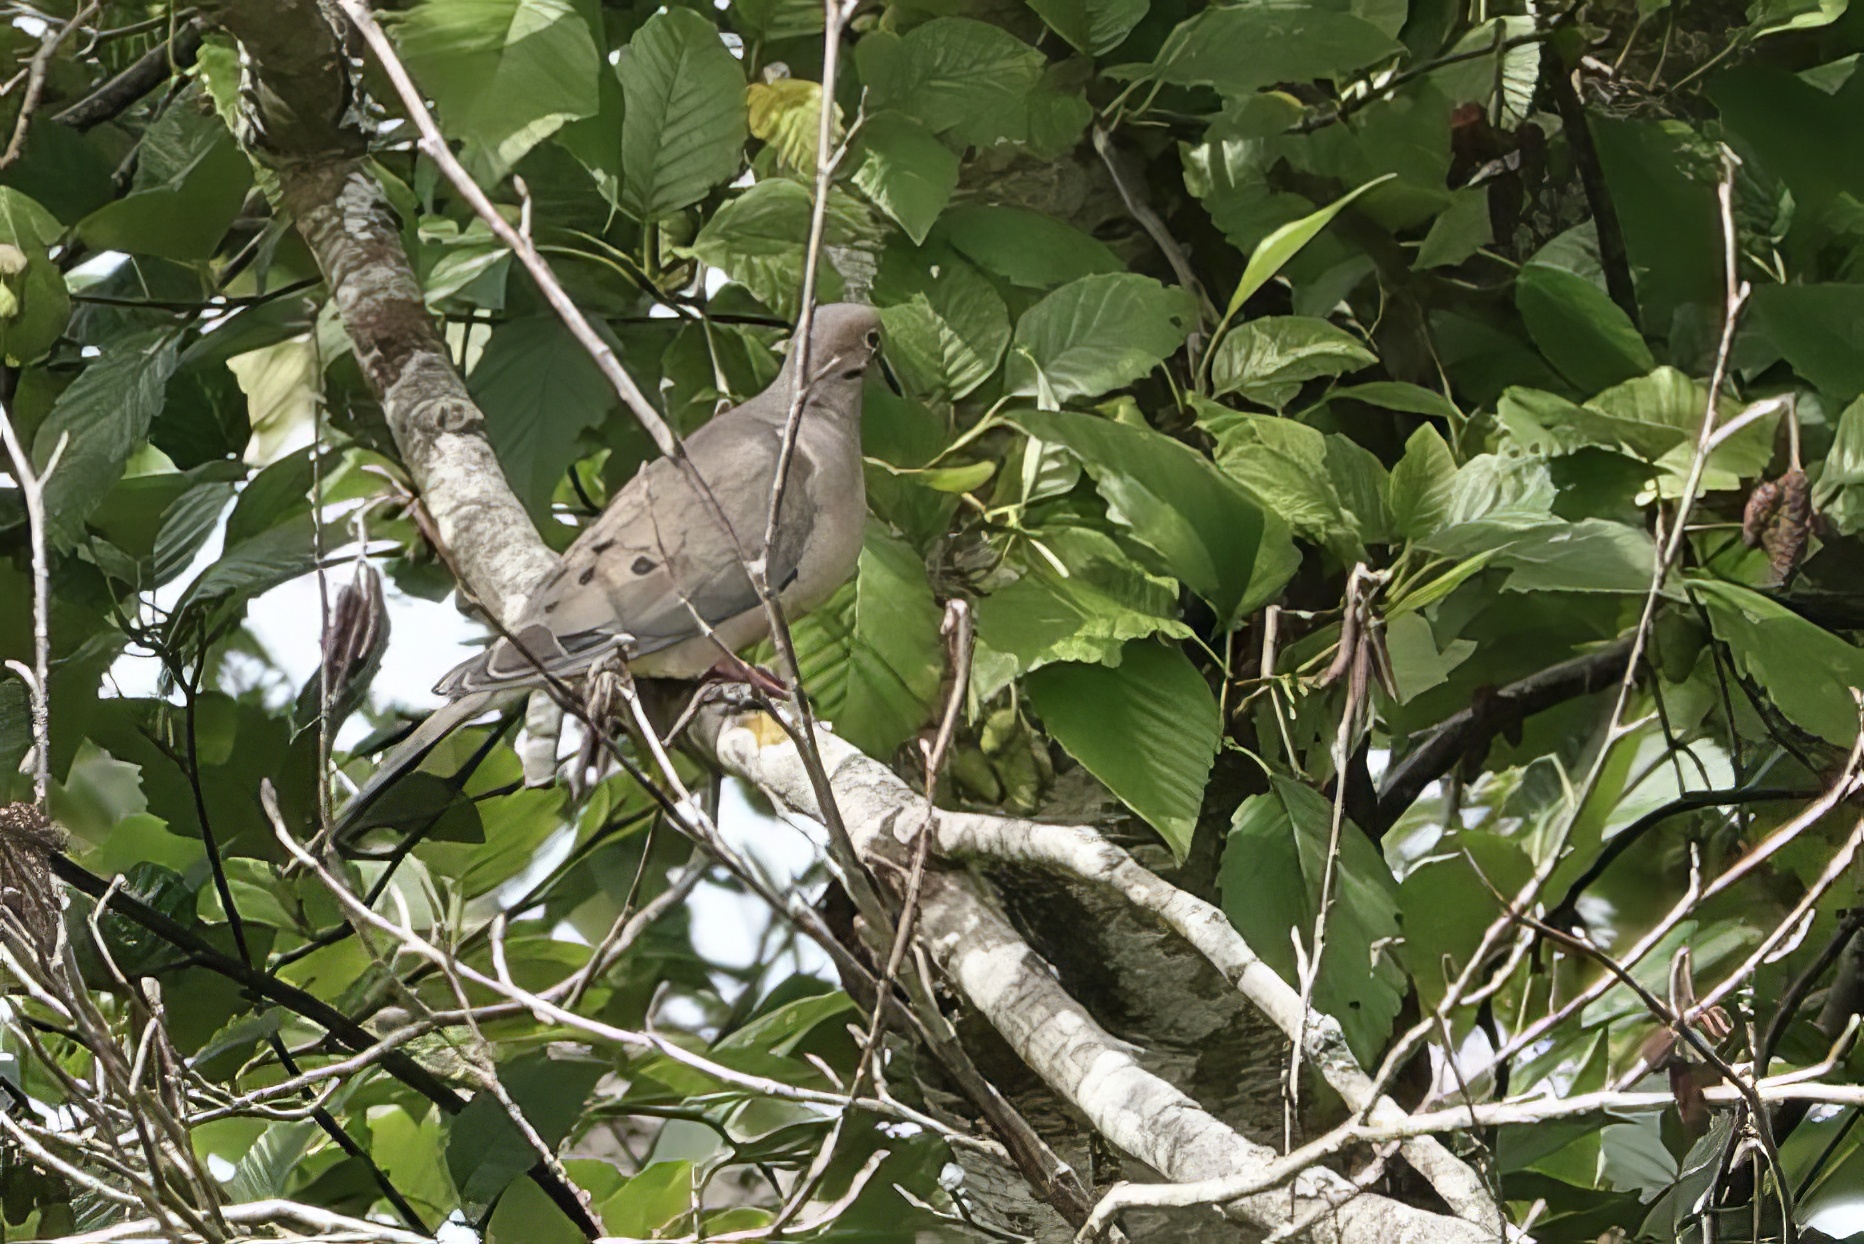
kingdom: Animalia
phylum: Chordata
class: Aves
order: Columbiformes
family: Columbidae
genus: Zenaida
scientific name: Zenaida macroura
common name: Mourning dove
